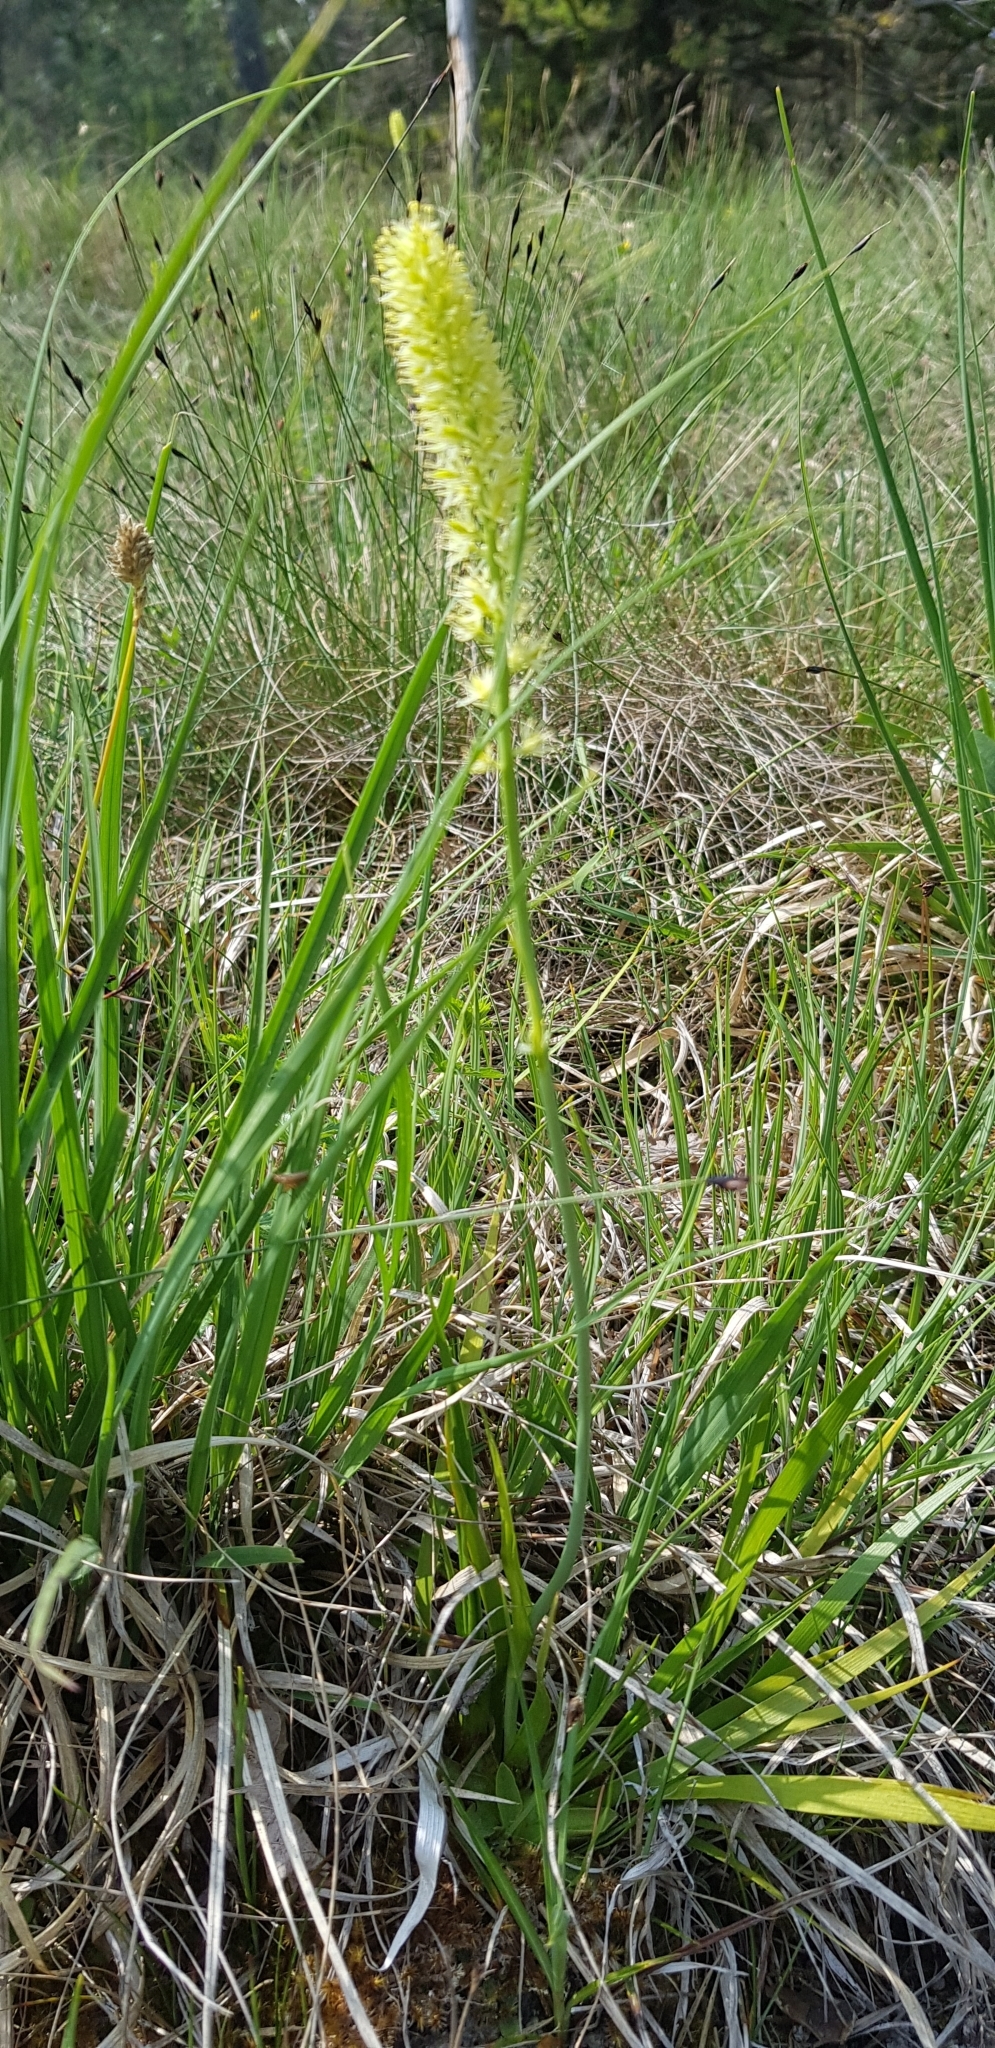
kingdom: Plantae
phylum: Tracheophyta
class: Liliopsida
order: Alismatales
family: Tofieldiaceae
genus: Tofieldia
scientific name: Tofieldia calyculata
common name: German-asphodel
